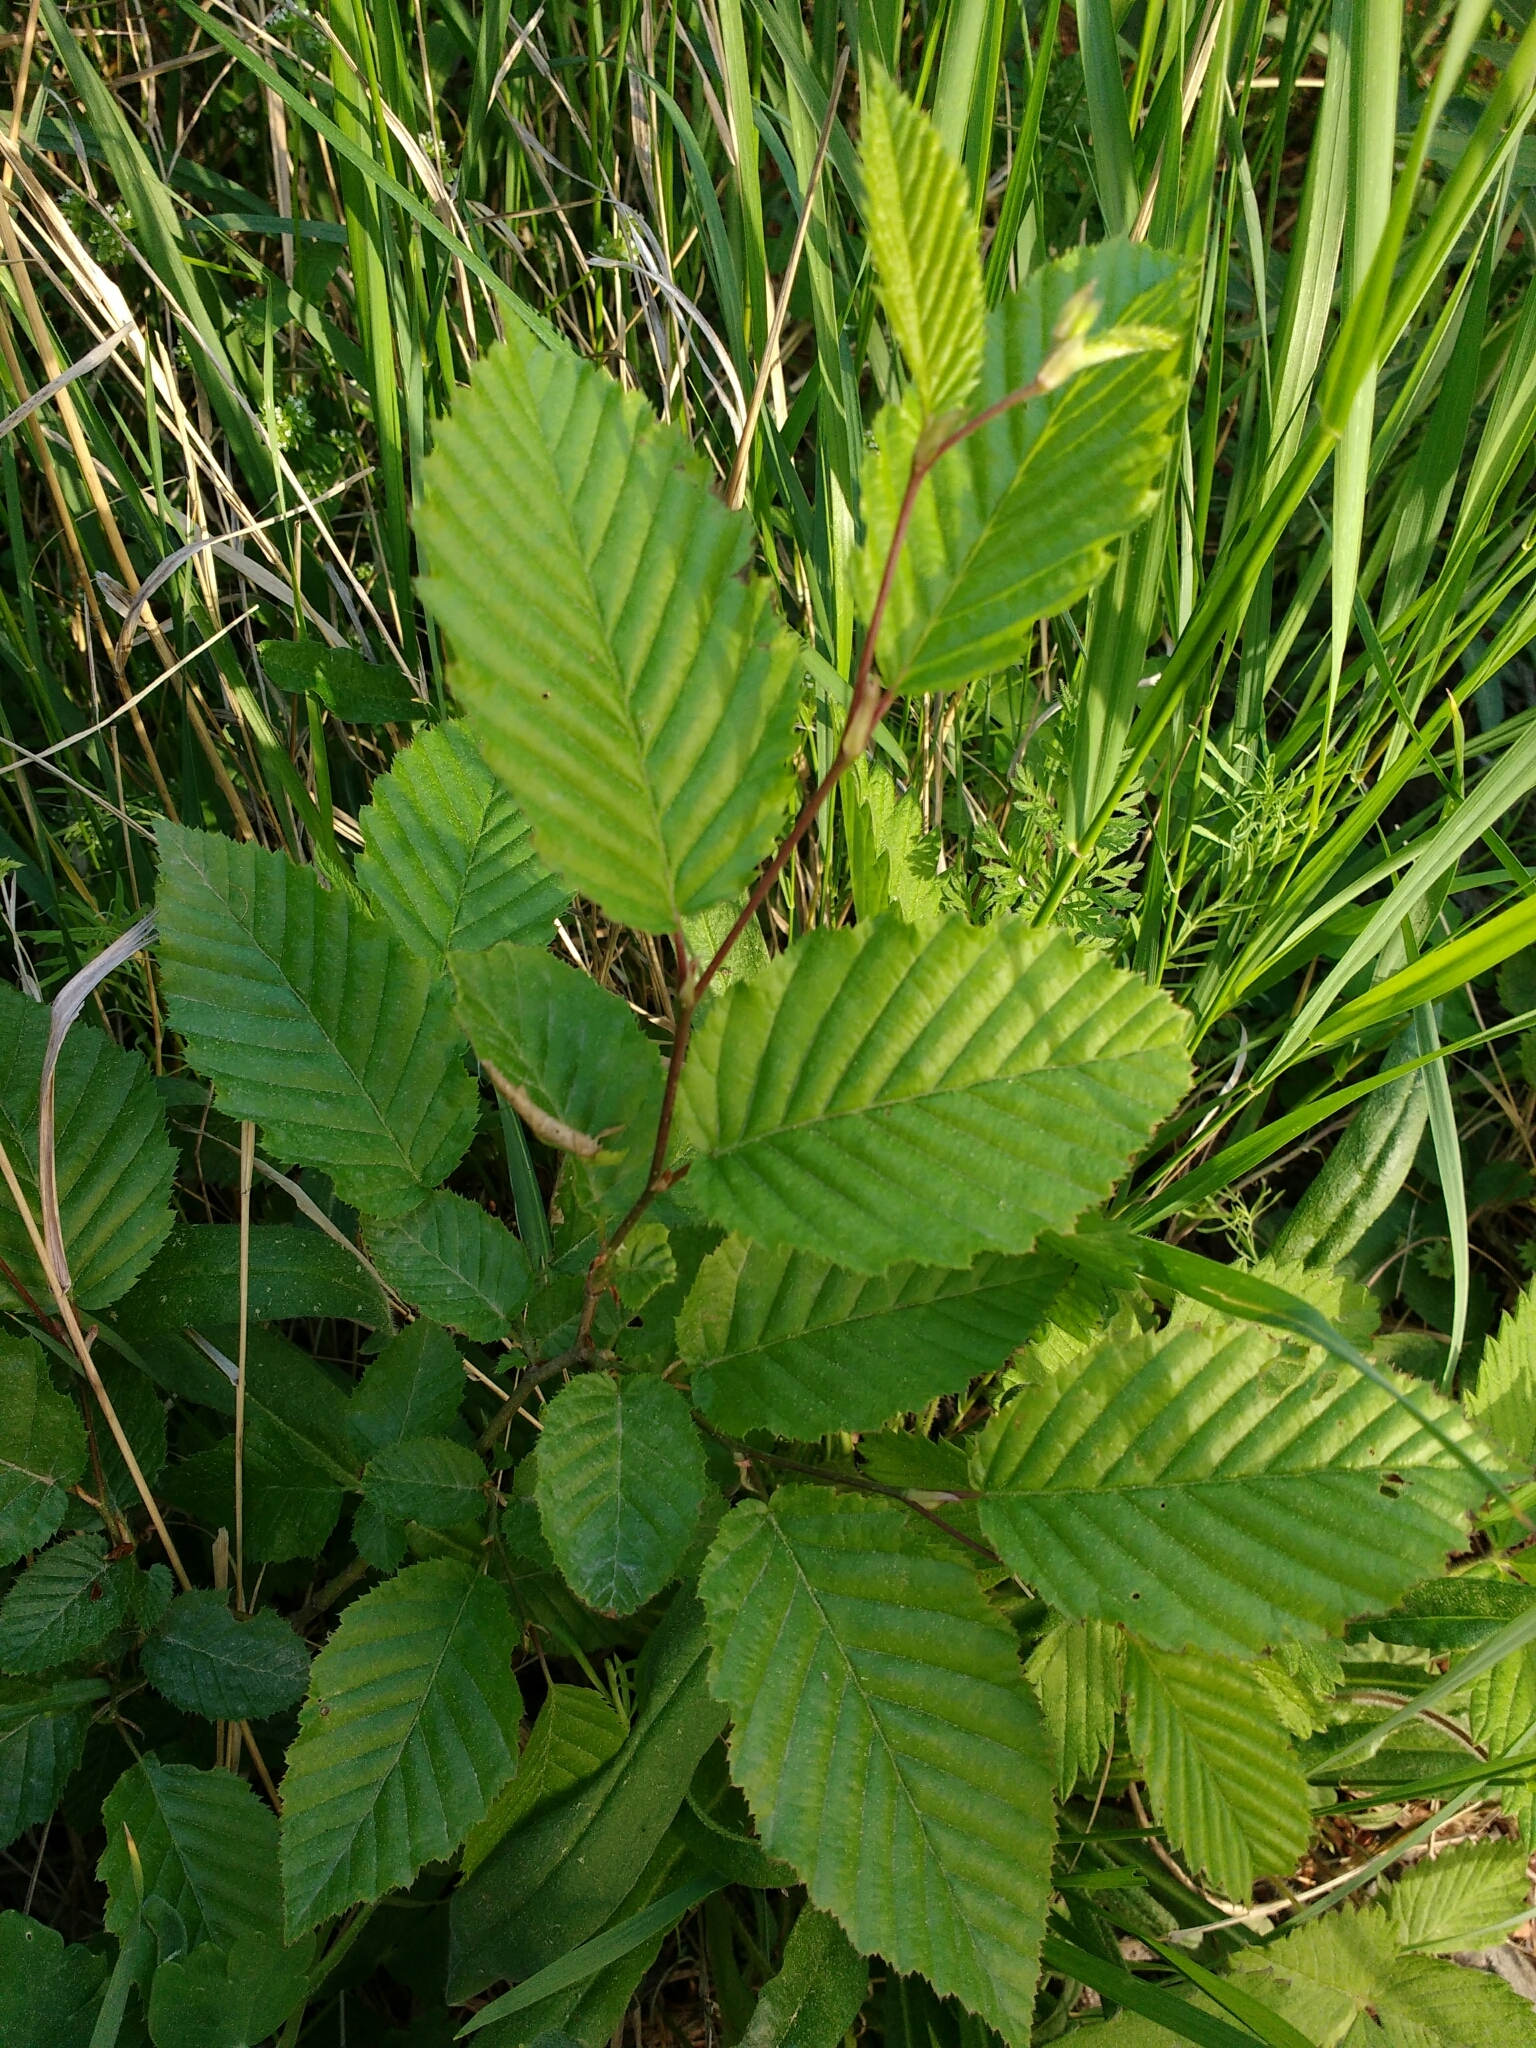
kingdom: Plantae
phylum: Tracheophyta
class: Magnoliopsida
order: Fagales
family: Betulaceae
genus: Carpinus
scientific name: Carpinus betulus
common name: Hornbeam
